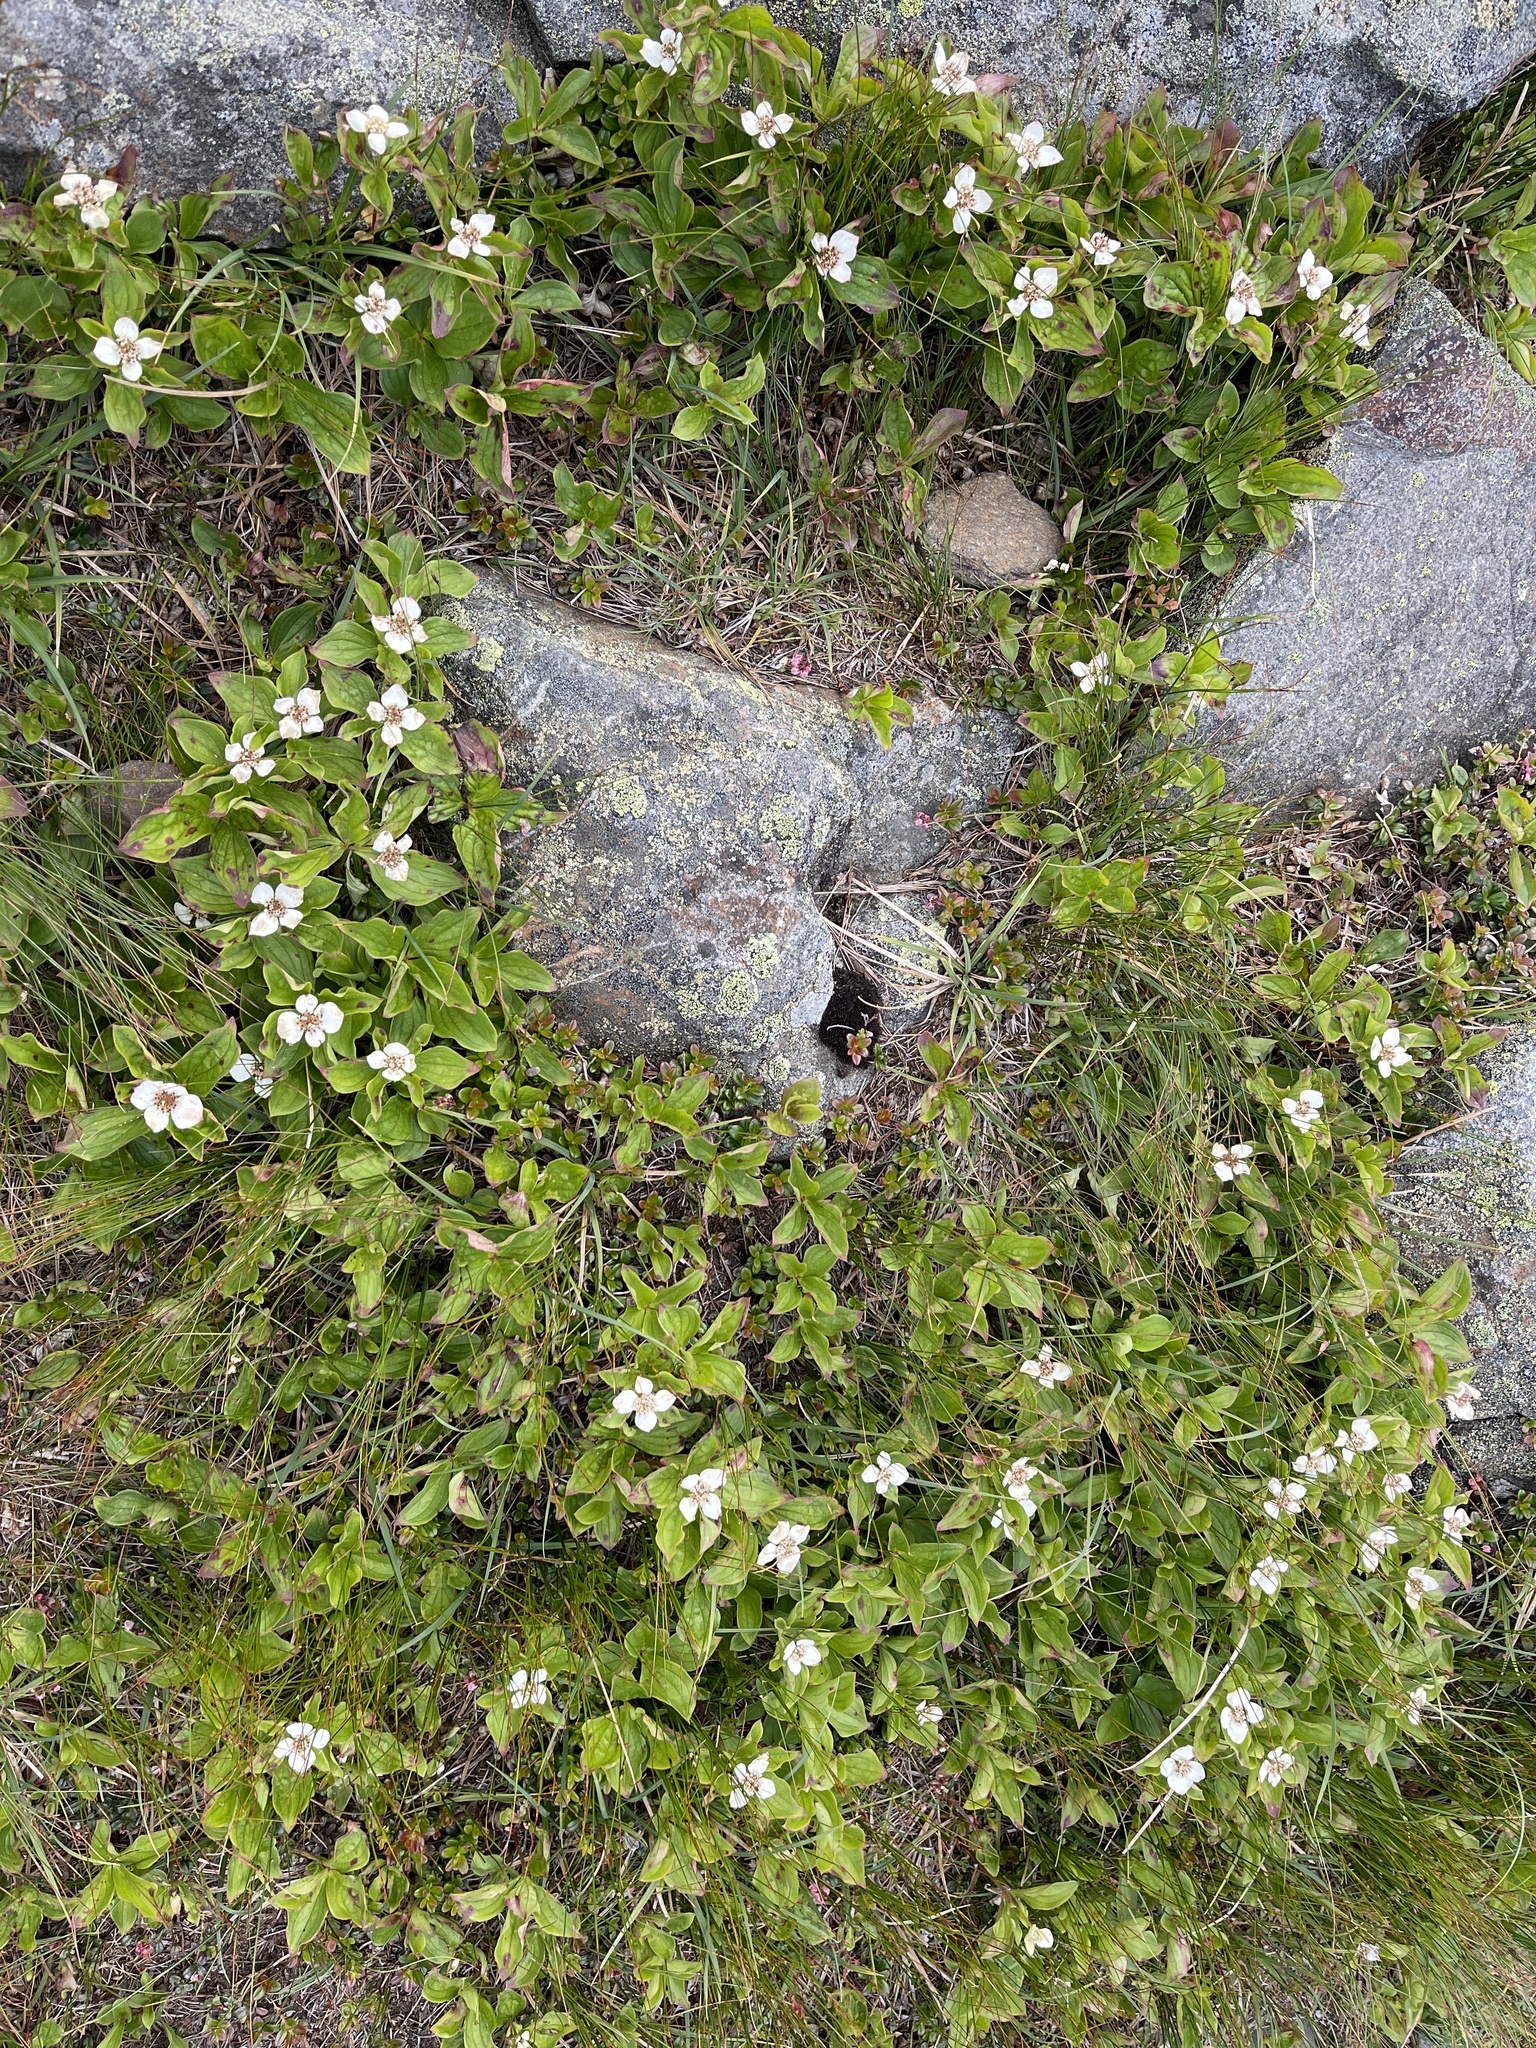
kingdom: Plantae
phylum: Tracheophyta
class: Magnoliopsida
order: Cornales
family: Cornaceae
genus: Cornus
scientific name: Cornus canadensis
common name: Creeping dogwood
